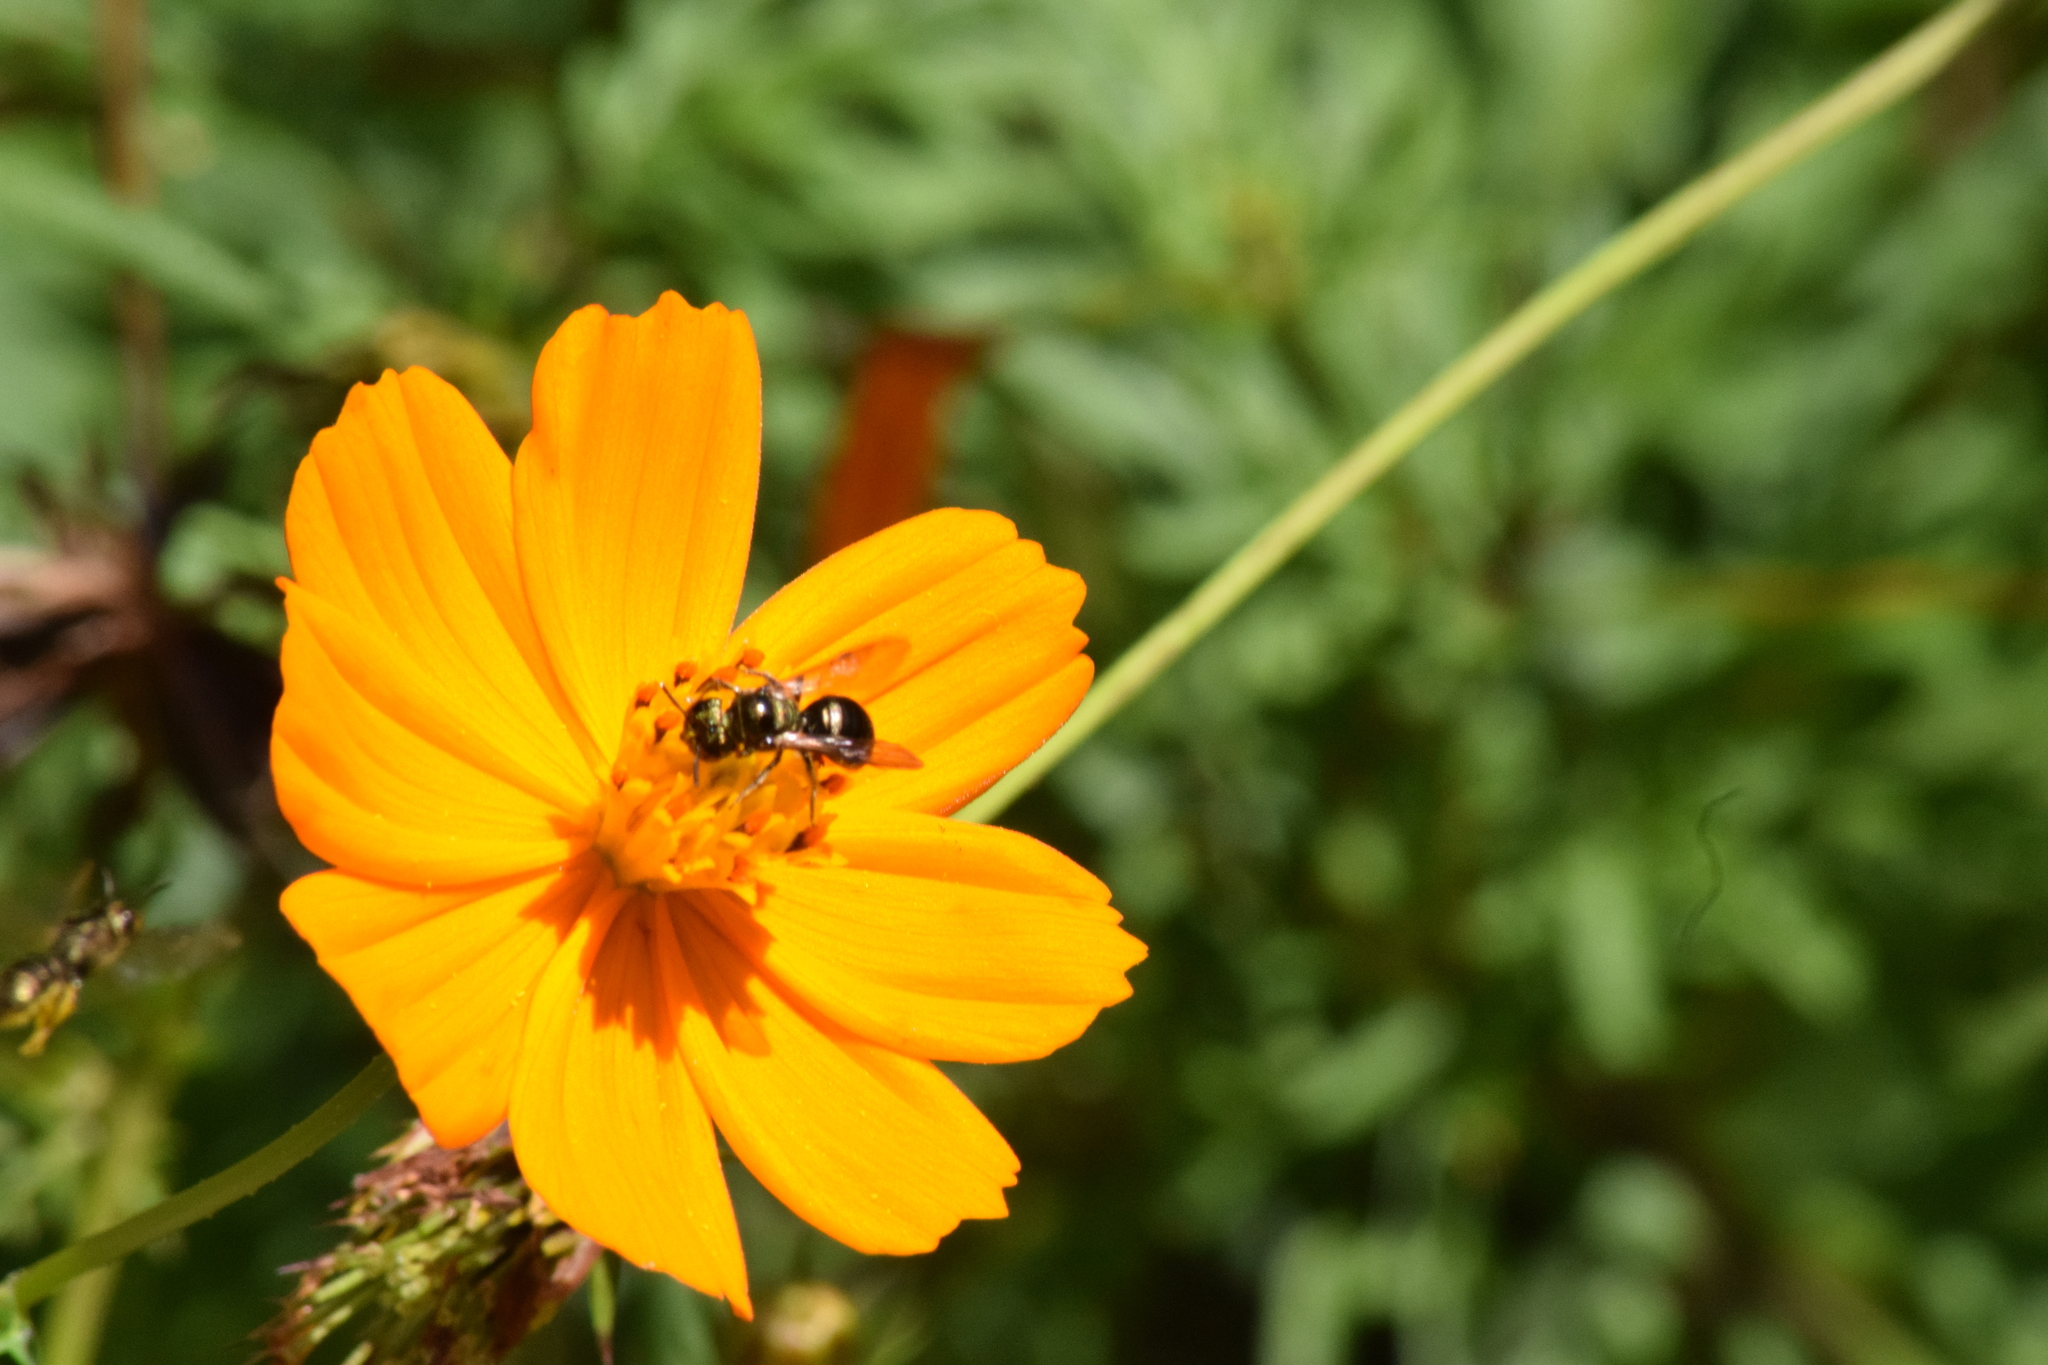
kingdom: Animalia
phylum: Arthropoda
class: Insecta
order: Hymenoptera
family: Apidae
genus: Ceratina
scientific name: Ceratina
